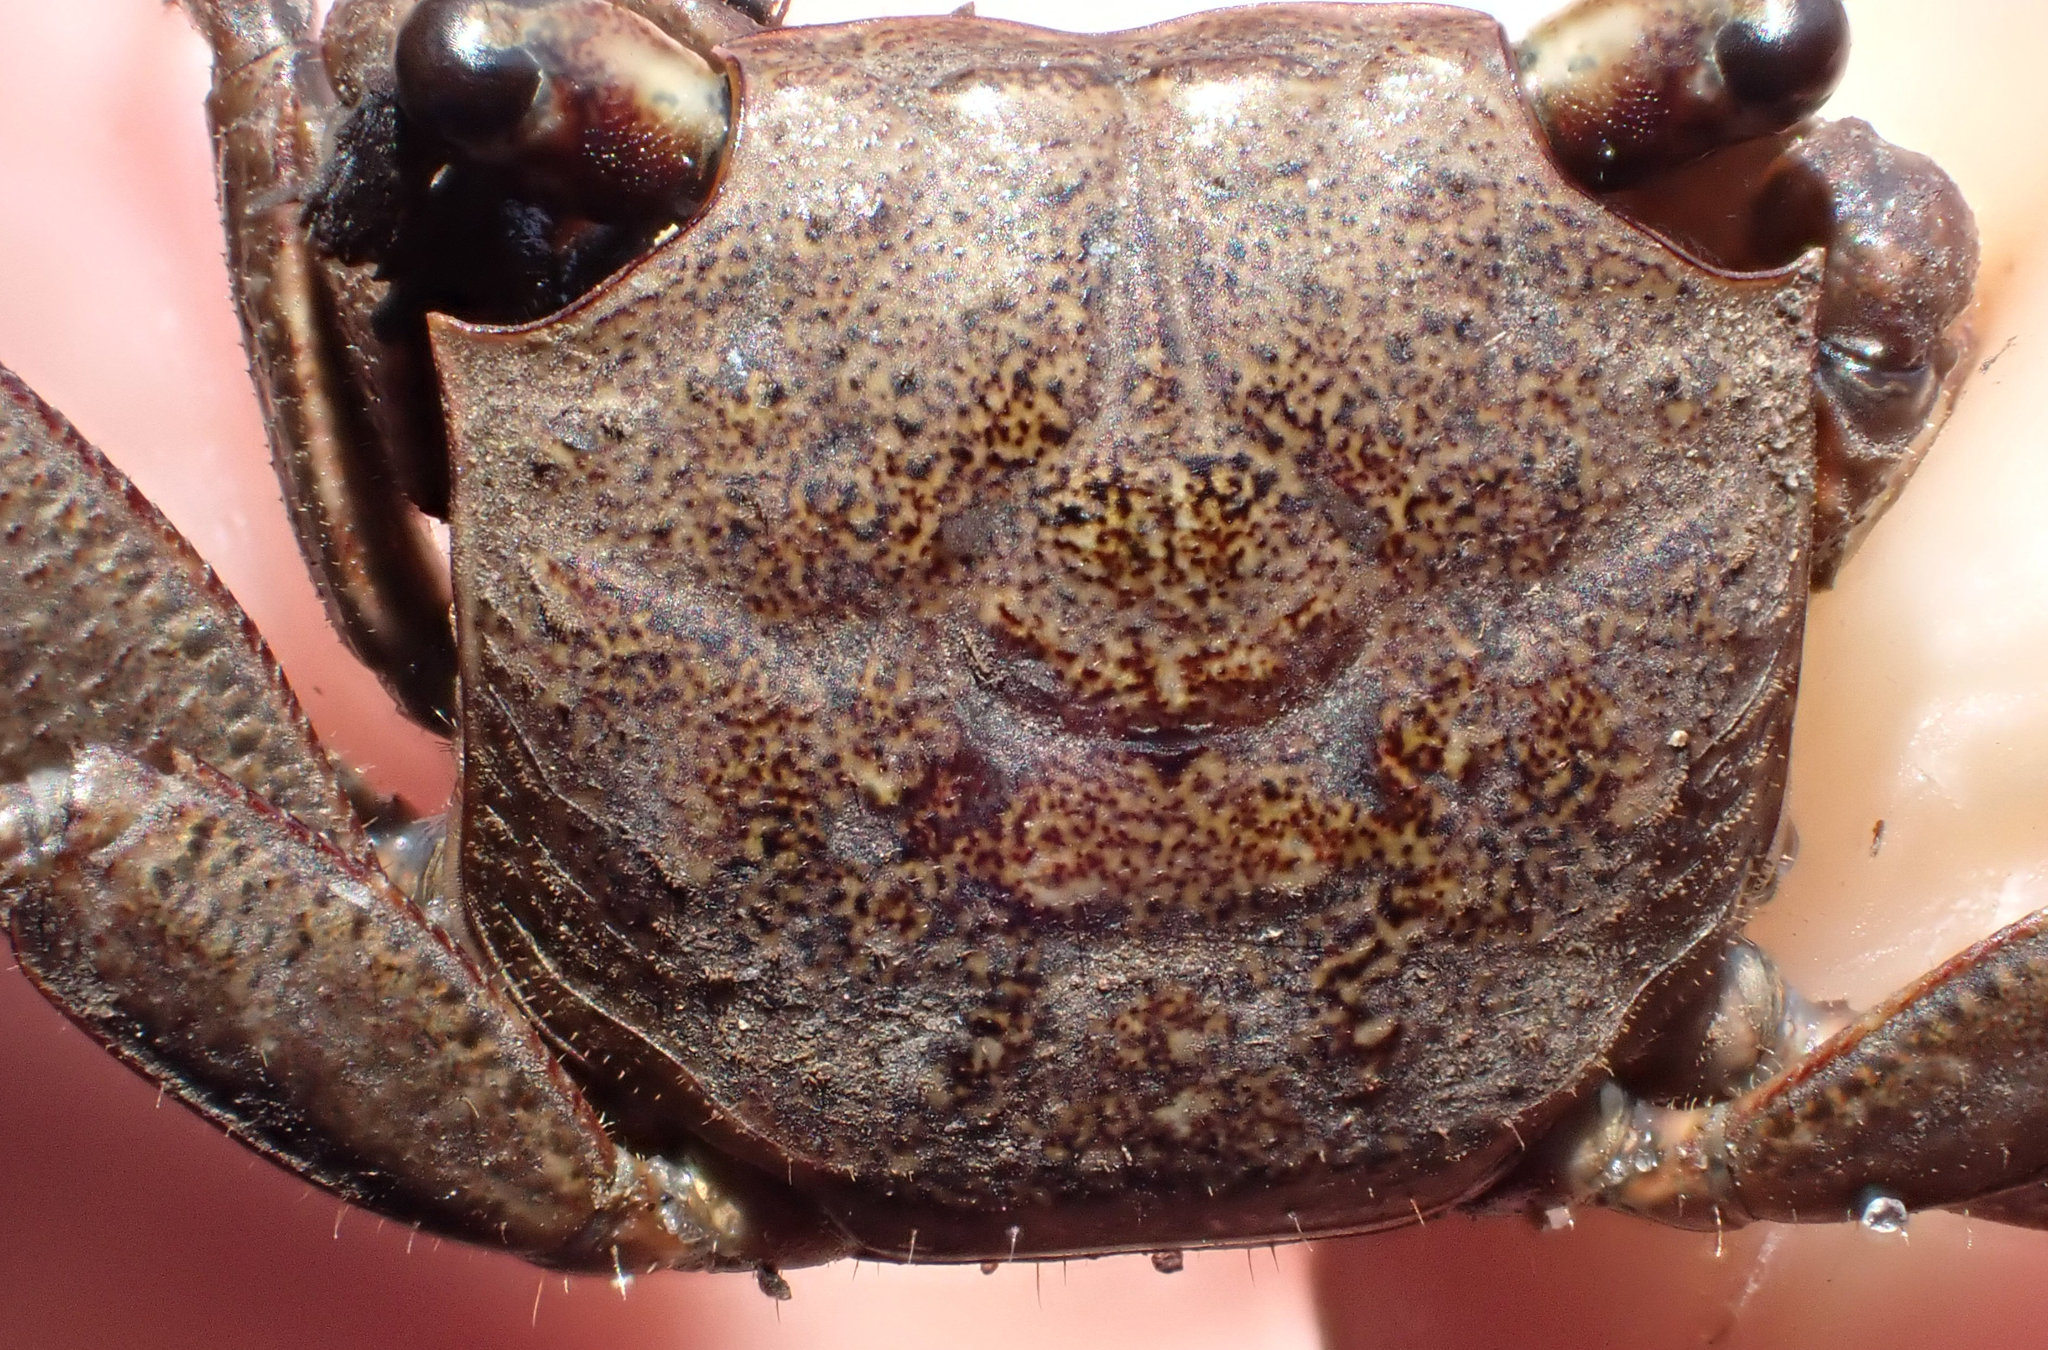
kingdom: Animalia
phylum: Arthropoda
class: Malacostraca
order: Decapoda
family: Sesarmidae
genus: Armases
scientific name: Armases cinereum
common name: Squareback marsh crab
